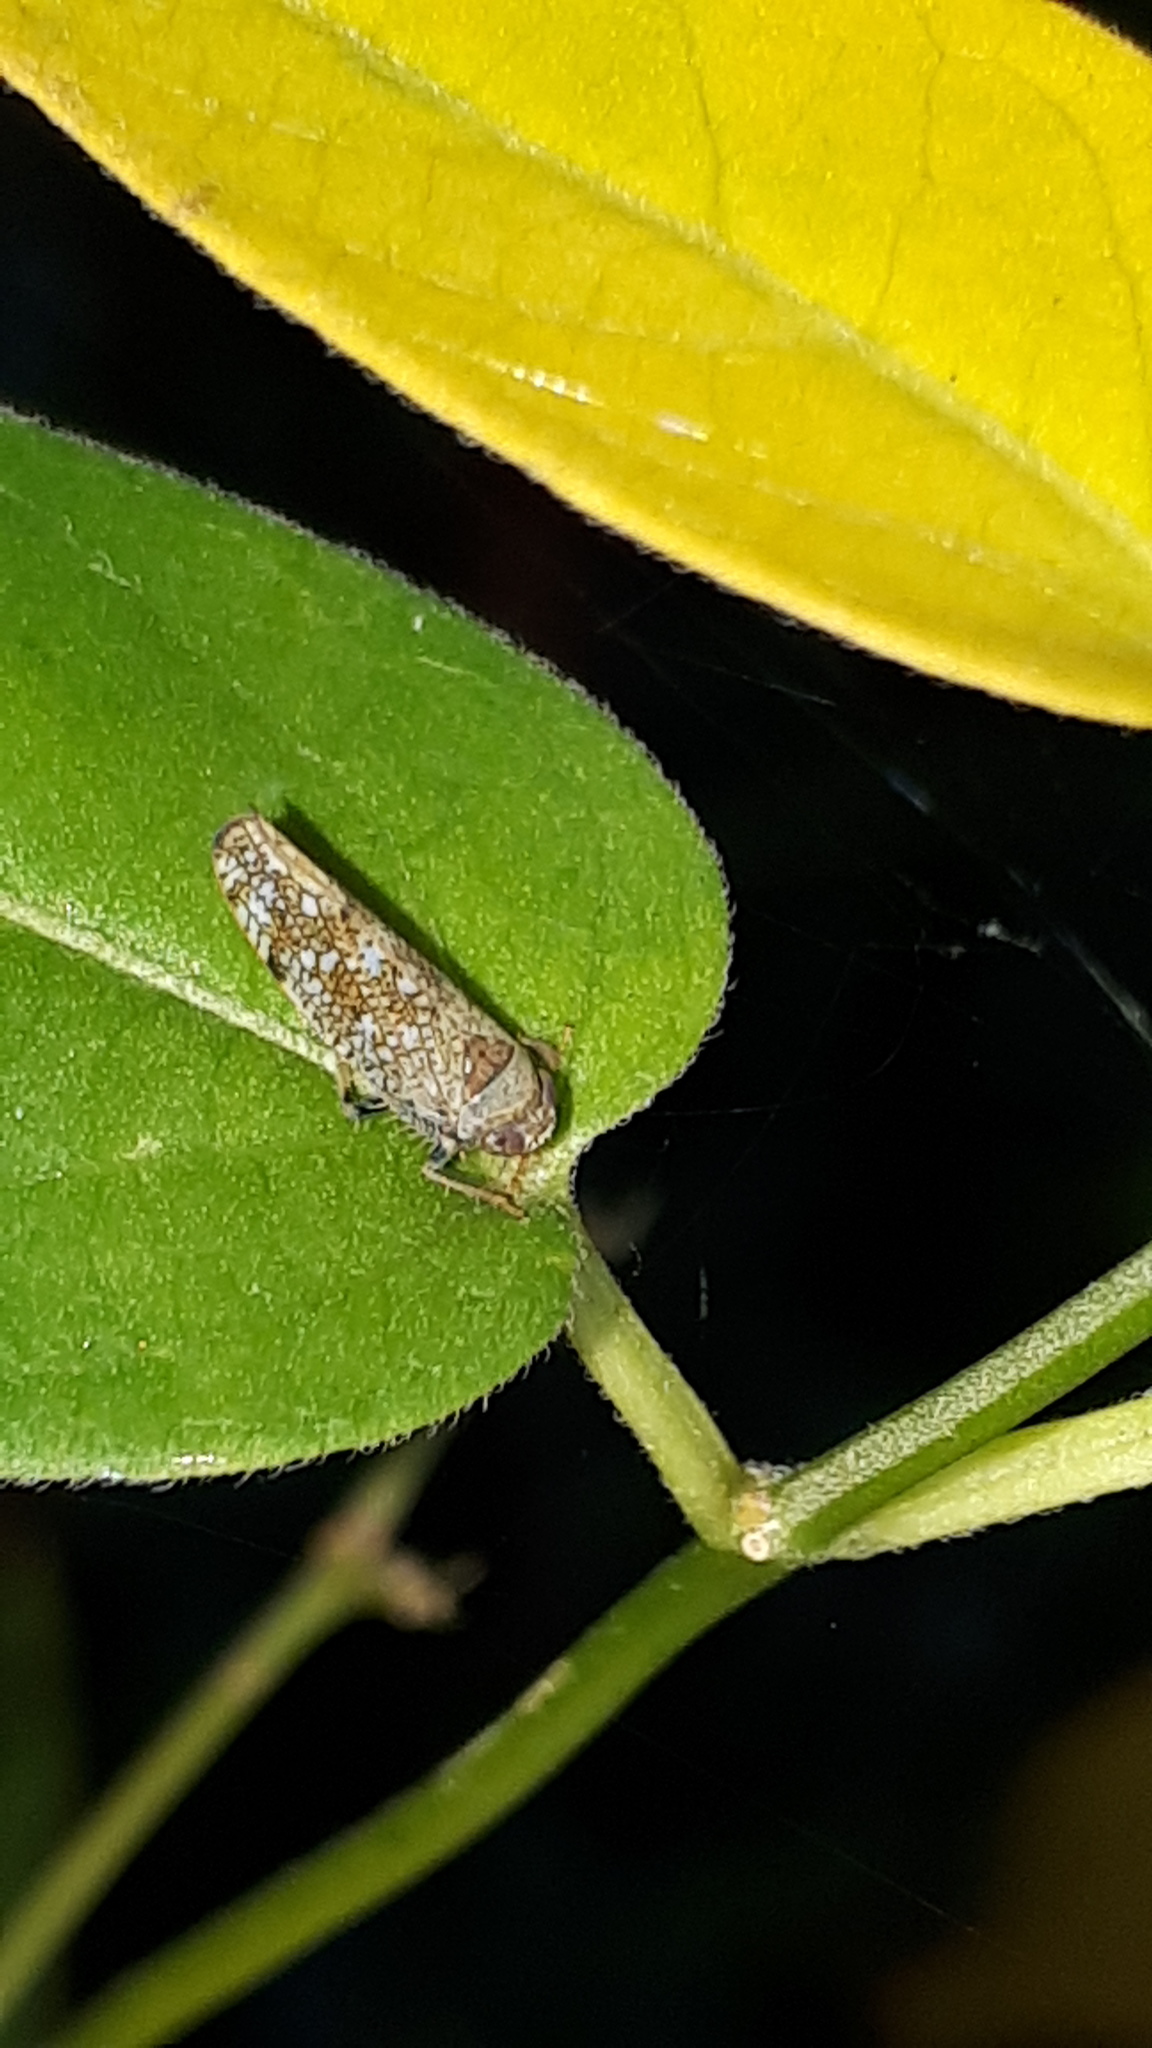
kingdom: Animalia
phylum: Arthropoda
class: Insecta
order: Hemiptera
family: Cicadellidae
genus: Orientus
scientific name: Orientus ishidae
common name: Japanese leafhopper
